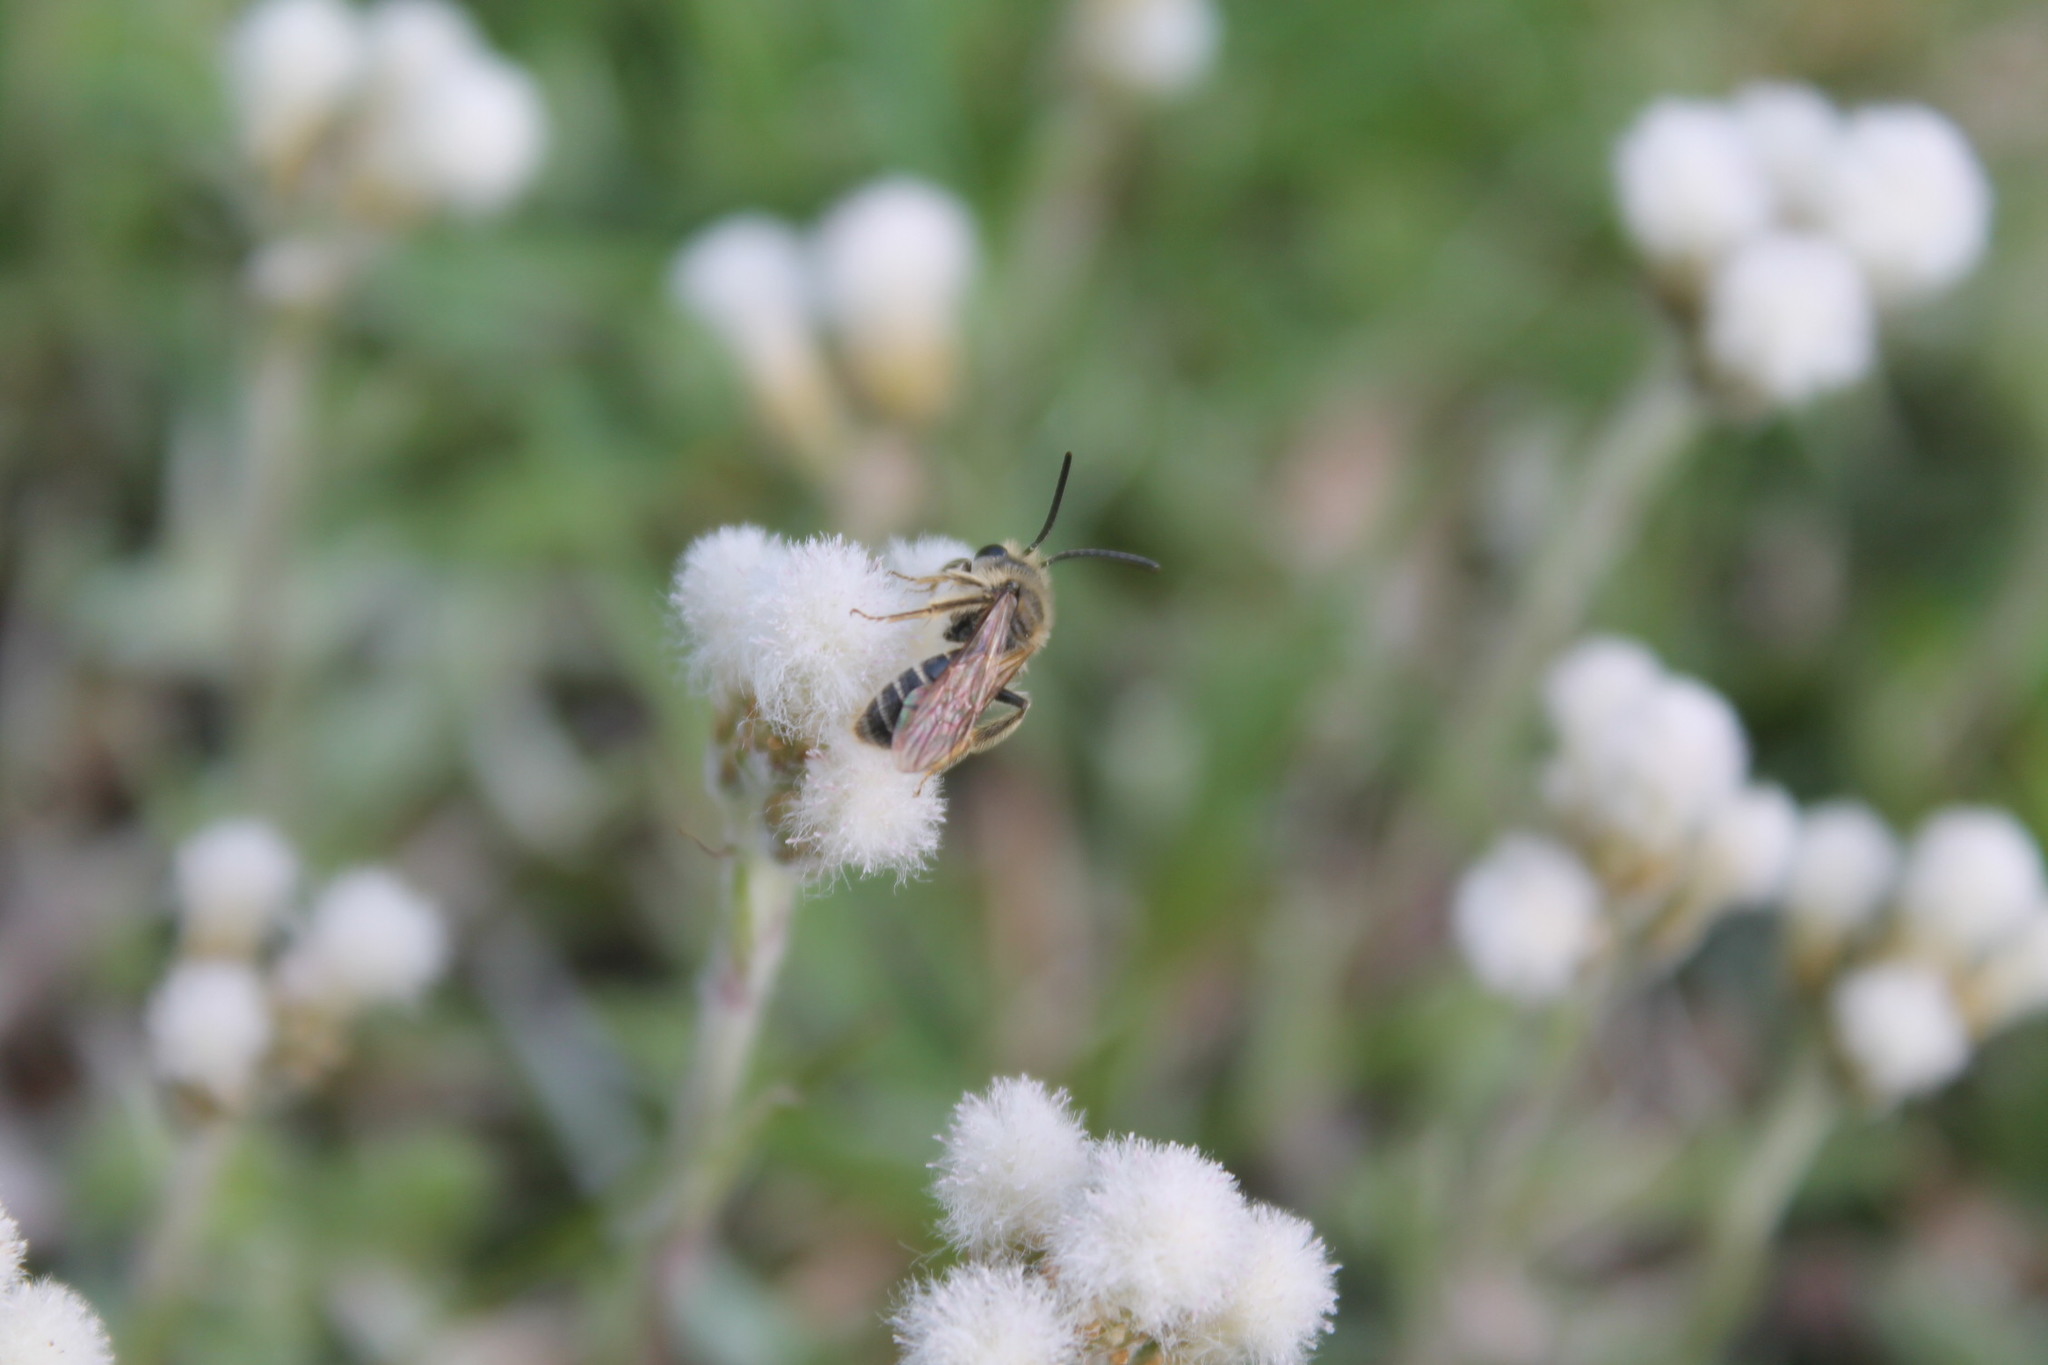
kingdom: Animalia
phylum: Arthropoda
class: Insecta
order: Hymenoptera
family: Andrenidae
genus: Andrena
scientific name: Andrena cressonii
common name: Cresson's mining bee
